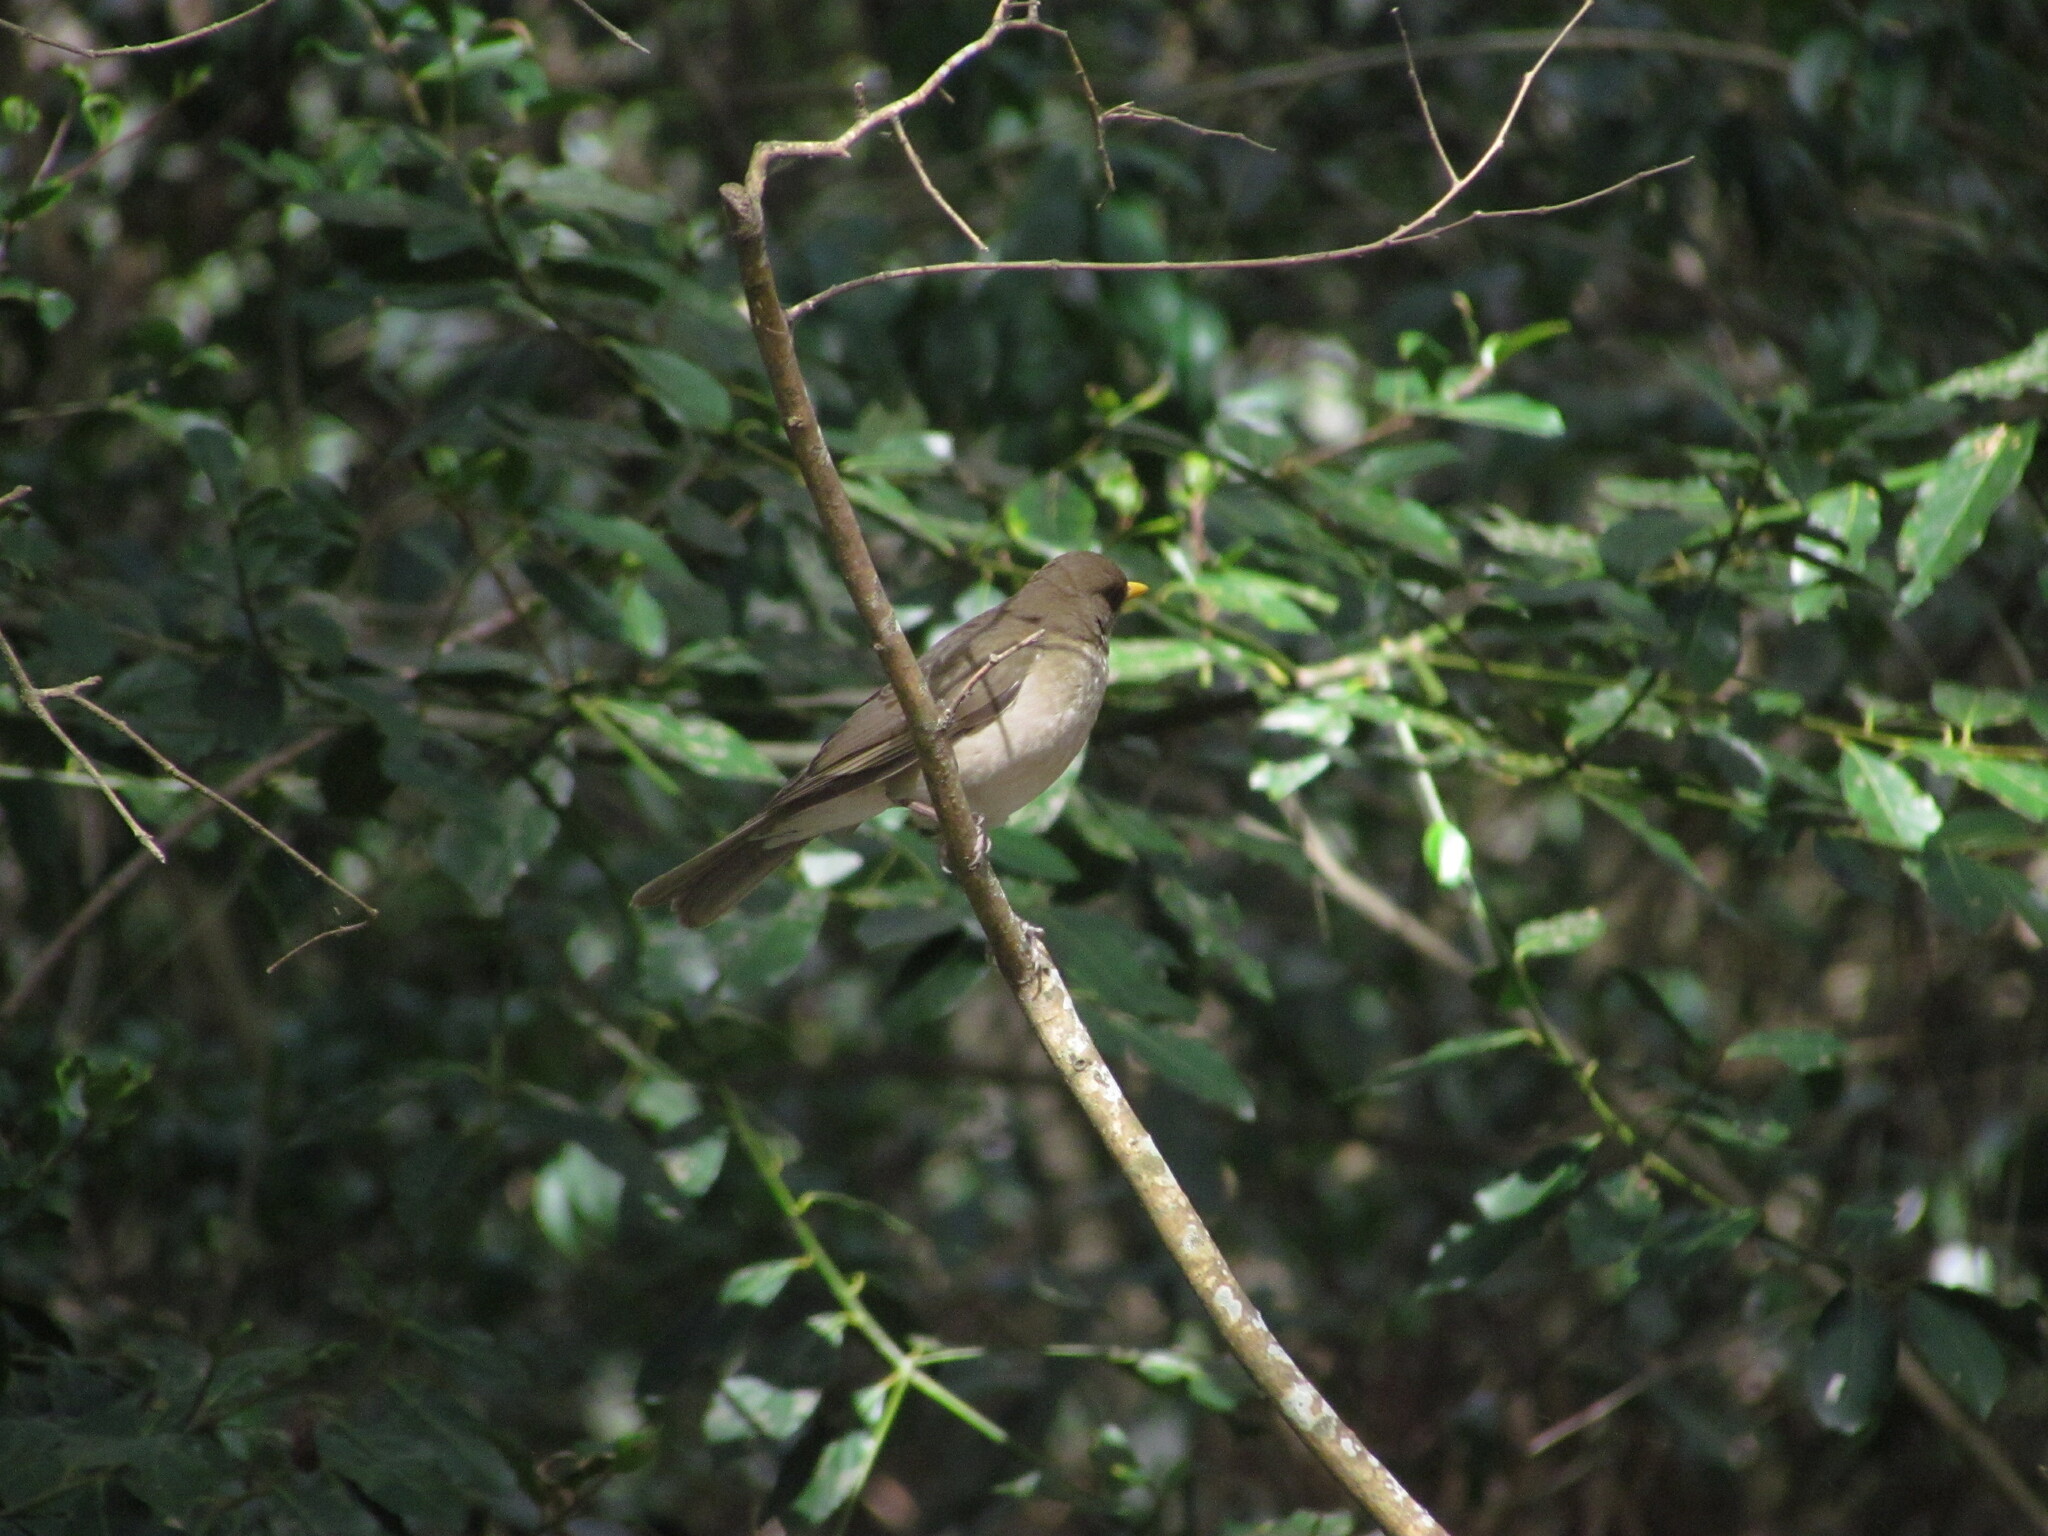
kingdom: Animalia
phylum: Chordata
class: Aves
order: Passeriformes
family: Turdidae
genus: Turdus
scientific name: Turdus amaurochalinus
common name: Creamy-bellied thrush
